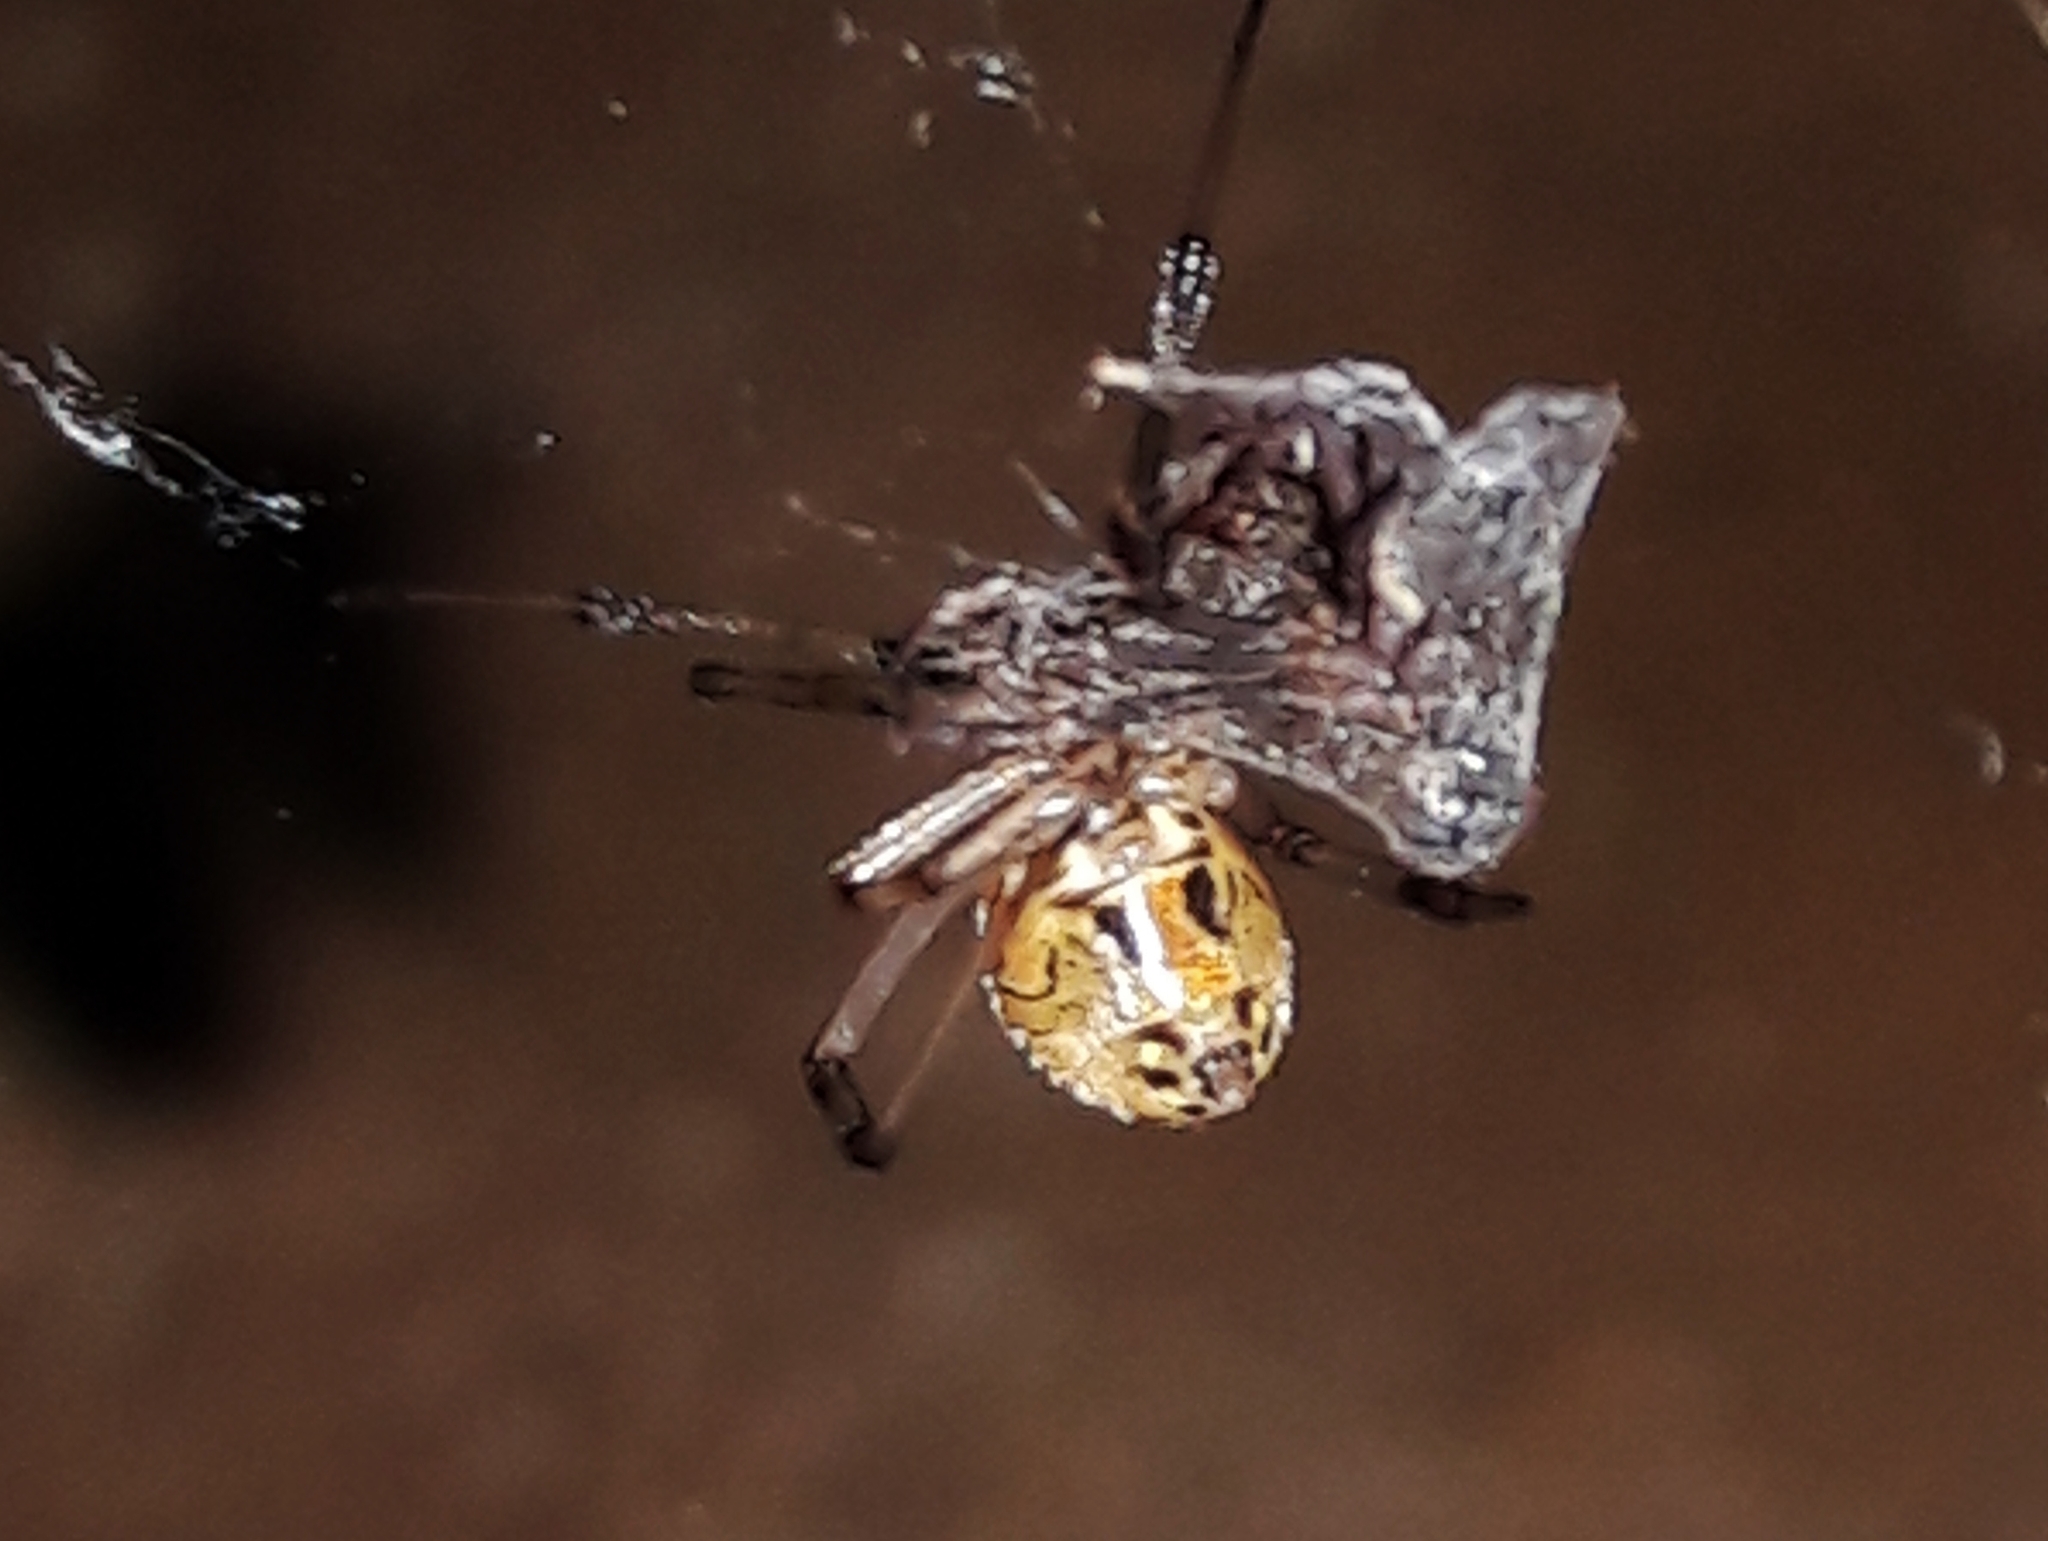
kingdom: Animalia
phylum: Arthropoda
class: Arachnida
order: Araneae
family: Theridiidae
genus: Latrodectus
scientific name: Latrodectus geometricus
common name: Brown widow spider
